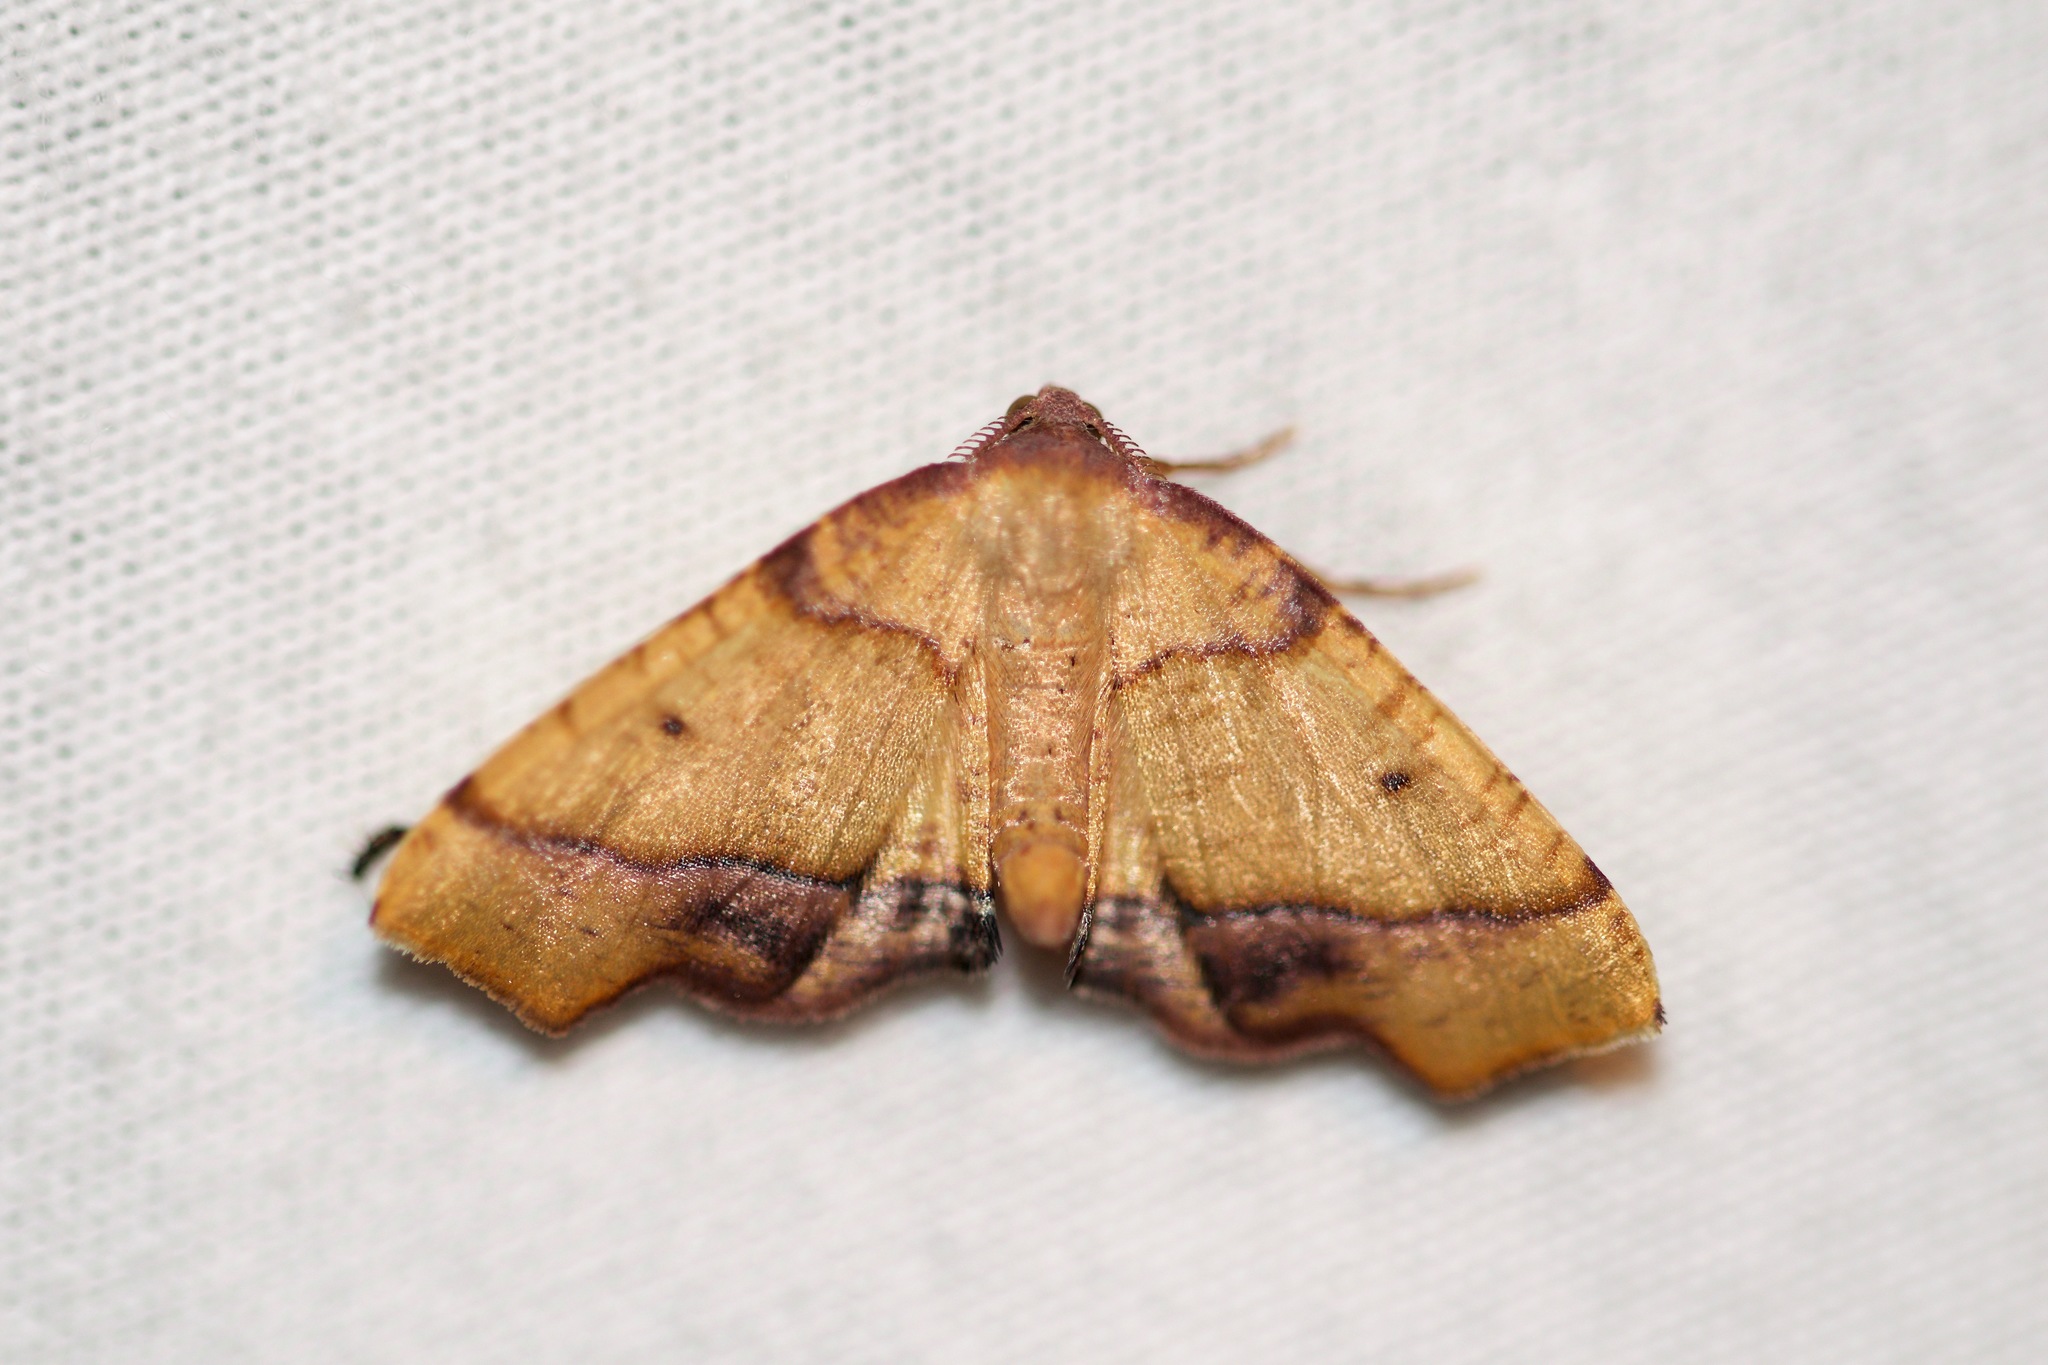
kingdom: Animalia
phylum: Arthropoda
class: Insecta
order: Lepidoptera
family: Geometridae
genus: Plagodis
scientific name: Plagodis phlogosaria
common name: Straight-lined plagodis
